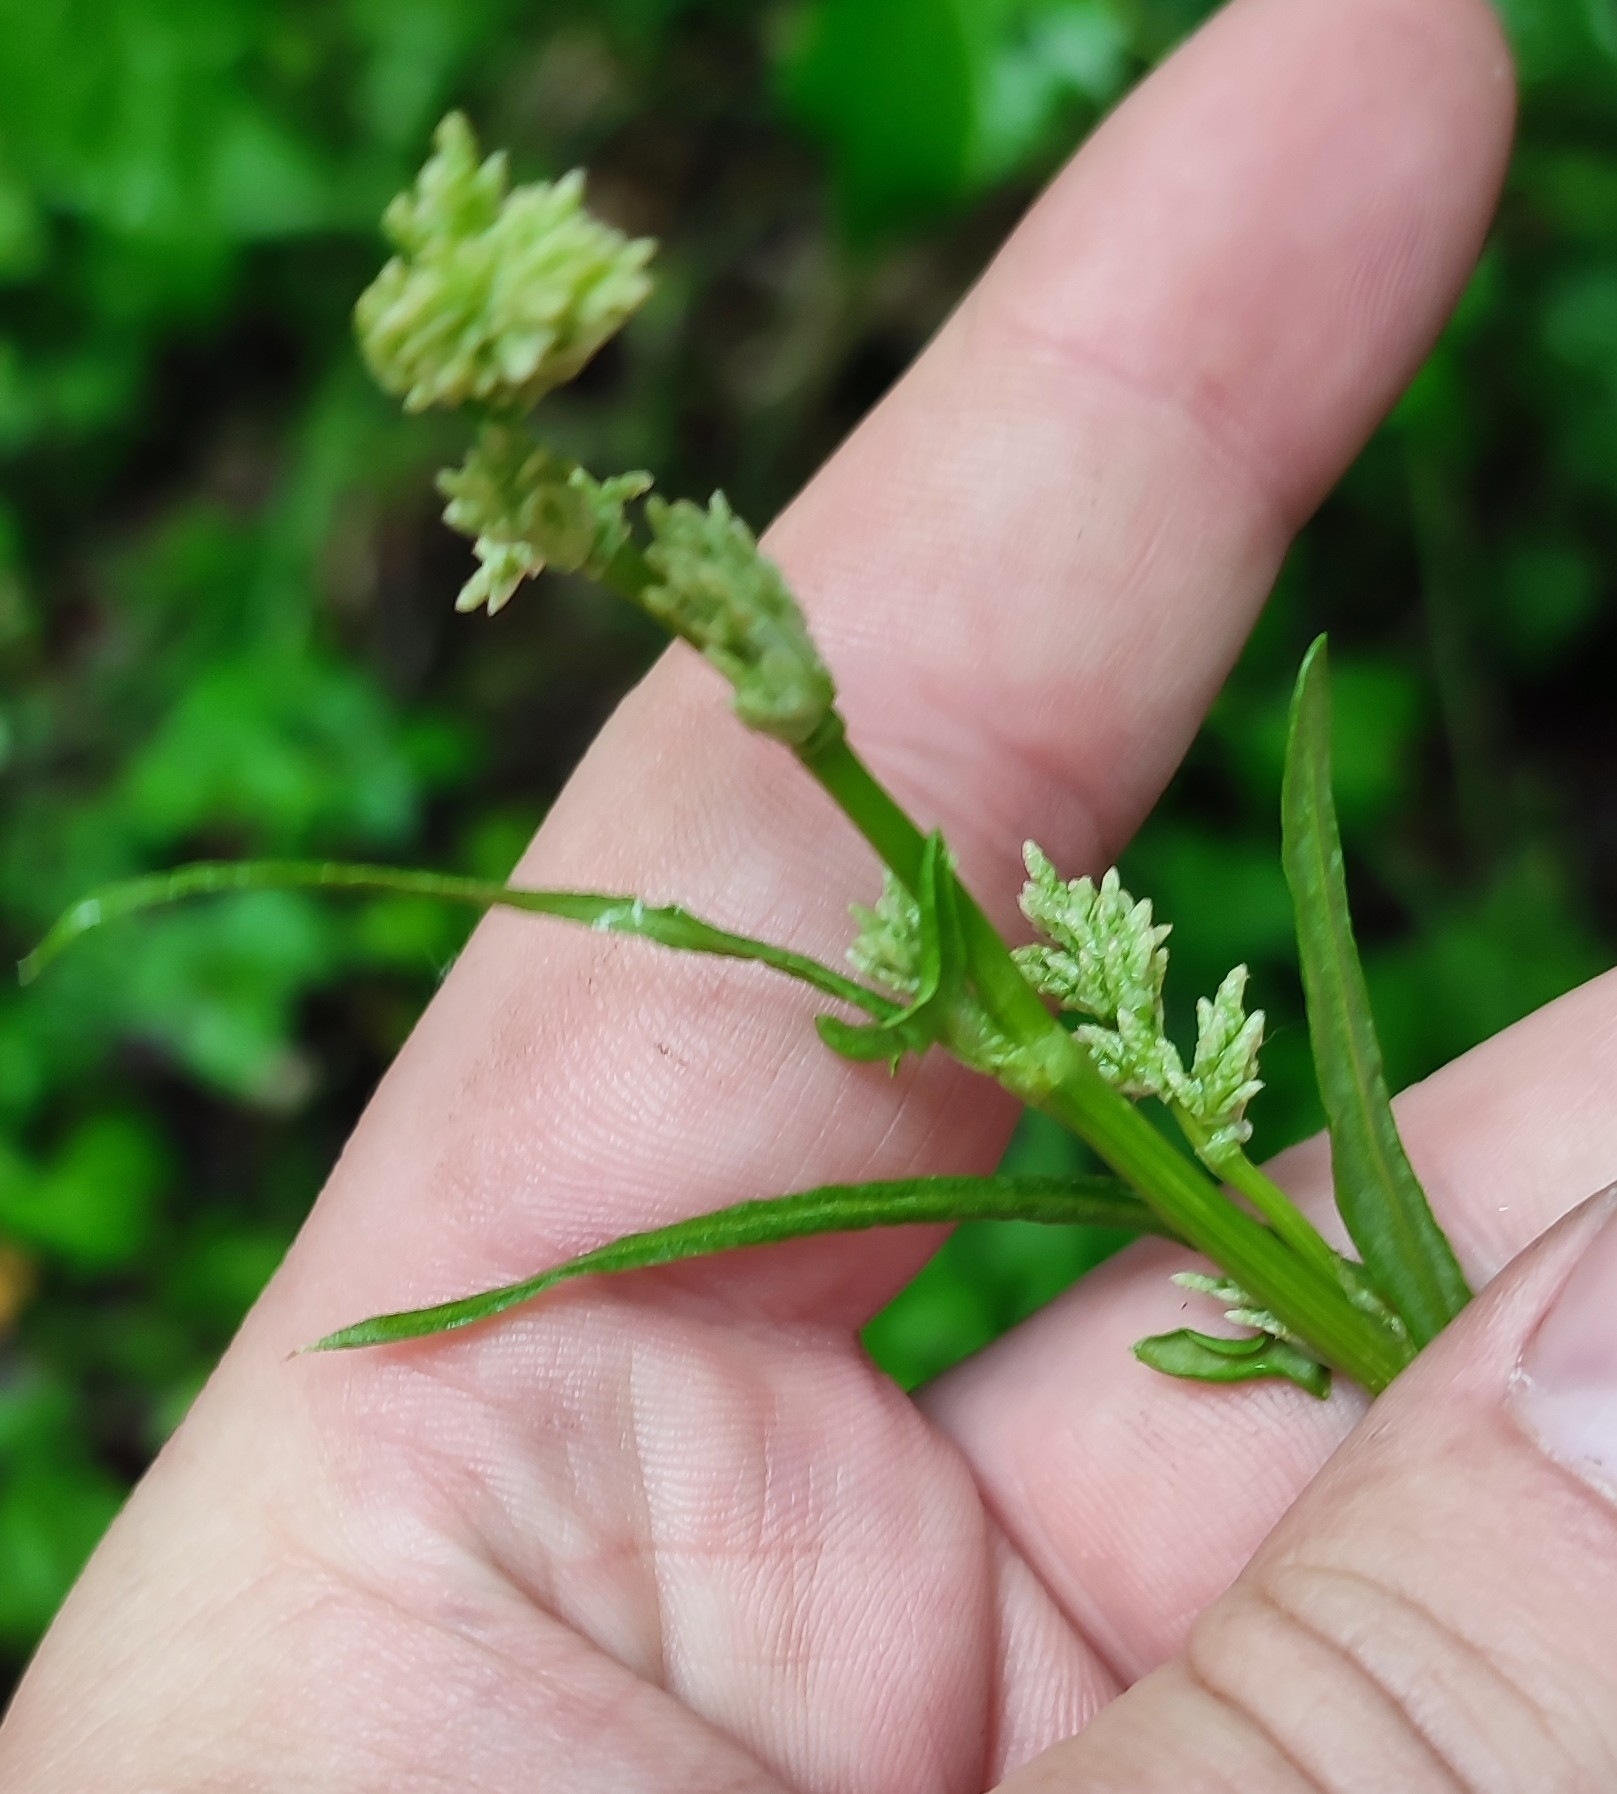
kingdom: Plantae
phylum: Tracheophyta
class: Magnoliopsida
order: Caryophyllales
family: Polygonaceae
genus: Rumex
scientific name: Rumex thyrsiflorus
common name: Garden sorrel
